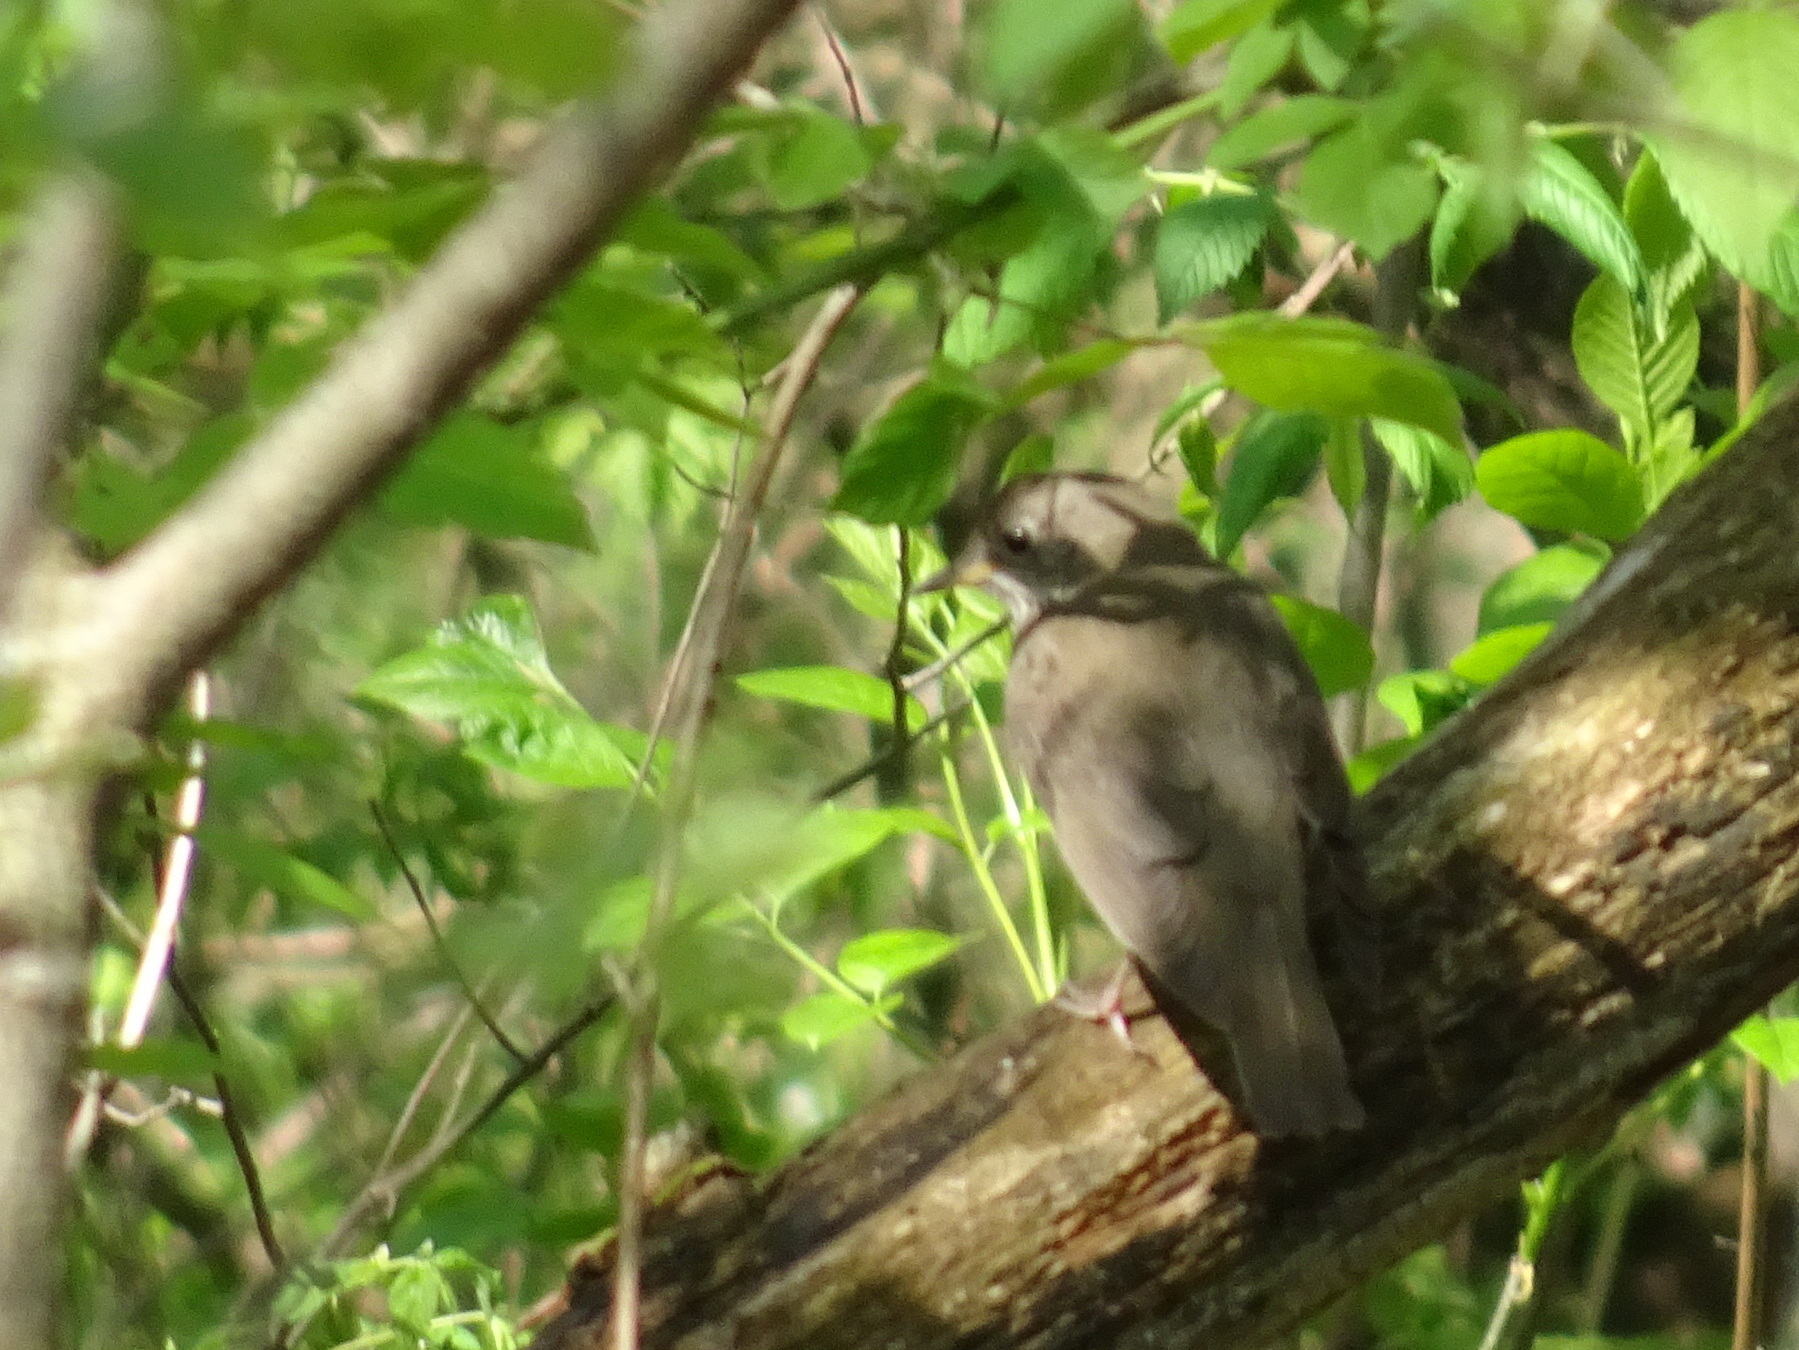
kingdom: Animalia
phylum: Chordata
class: Aves
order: Passeriformes
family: Turdidae
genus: Catharus
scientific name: Catharus minimus
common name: Grey-cheeked thrush
